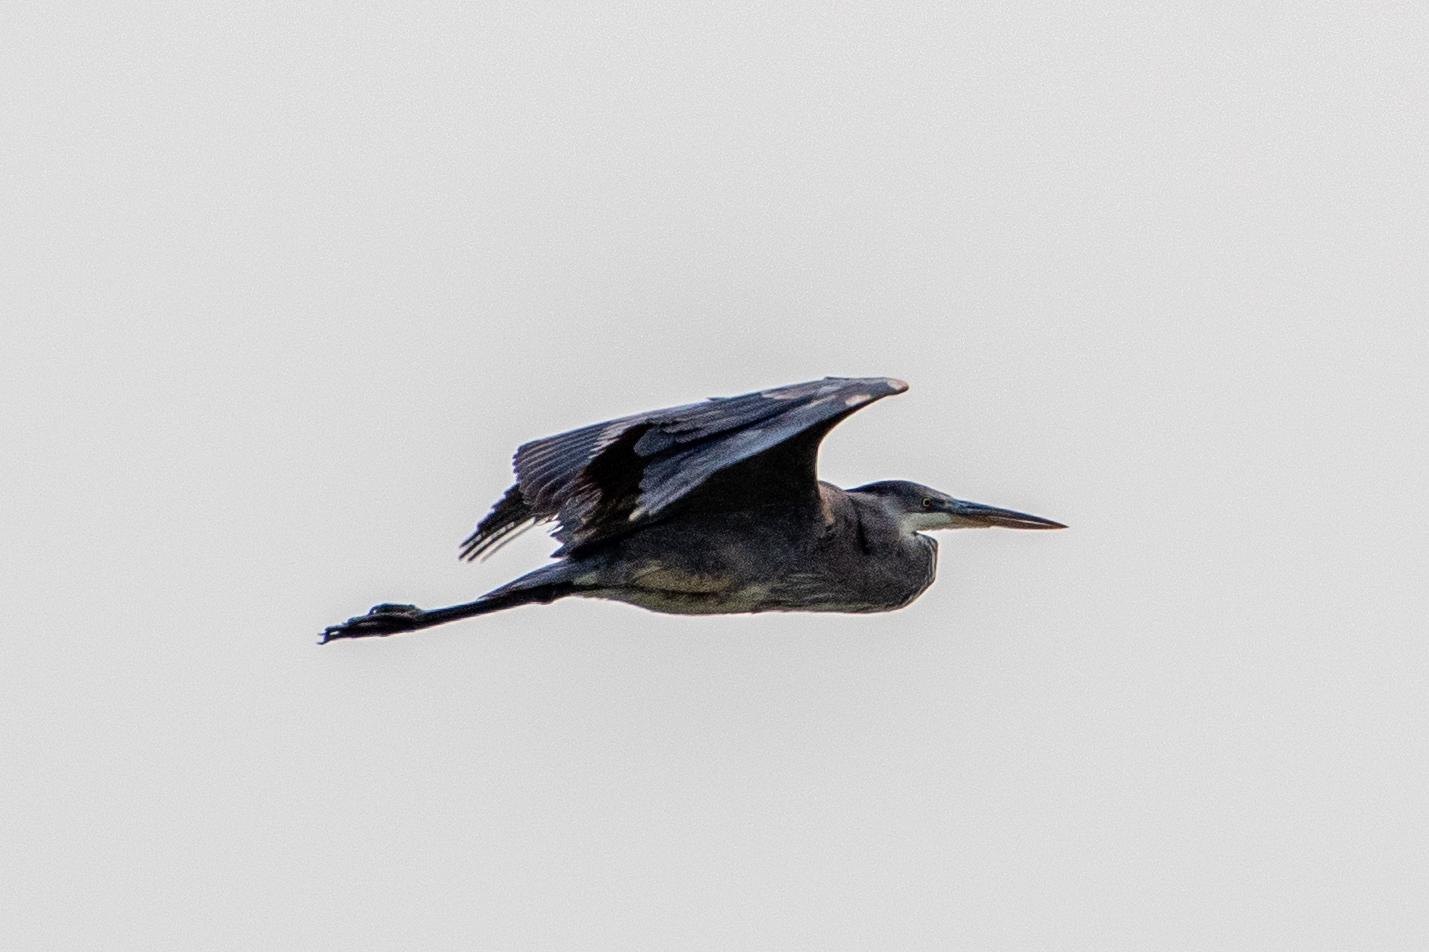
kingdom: Animalia
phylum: Chordata
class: Aves
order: Pelecaniformes
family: Ardeidae
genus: Ardea
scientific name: Ardea herodias
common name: Great blue heron
